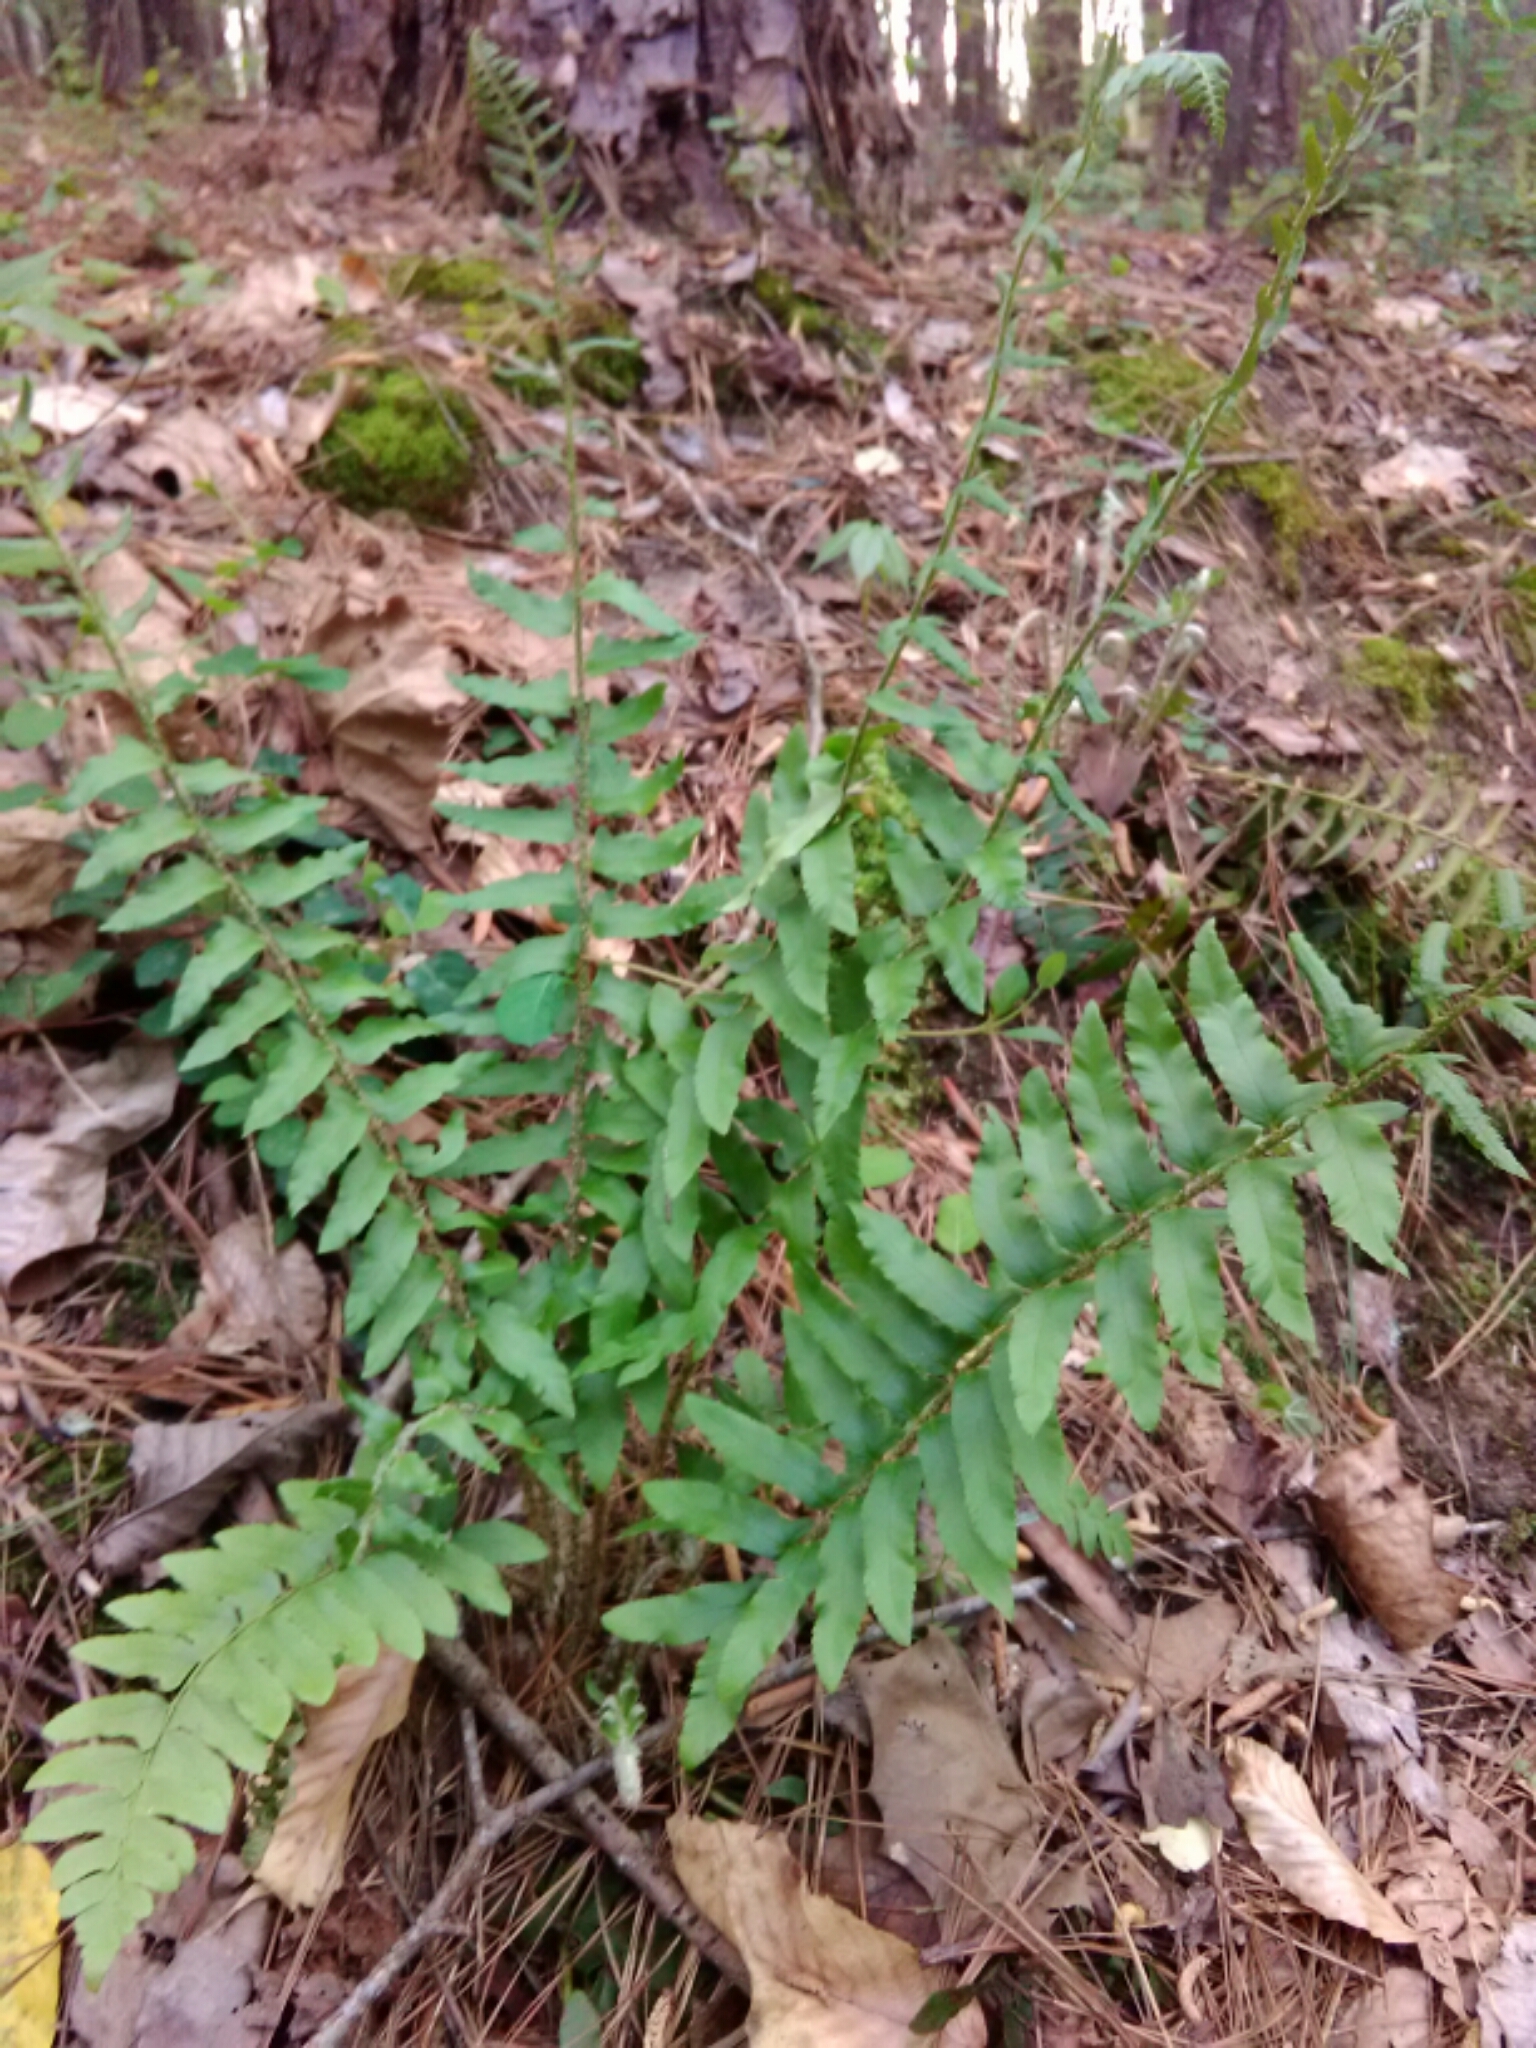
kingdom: Plantae
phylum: Tracheophyta
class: Polypodiopsida
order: Polypodiales
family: Dryopteridaceae
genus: Polystichum
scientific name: Polystichum acrostichoides
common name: Christmas fern
